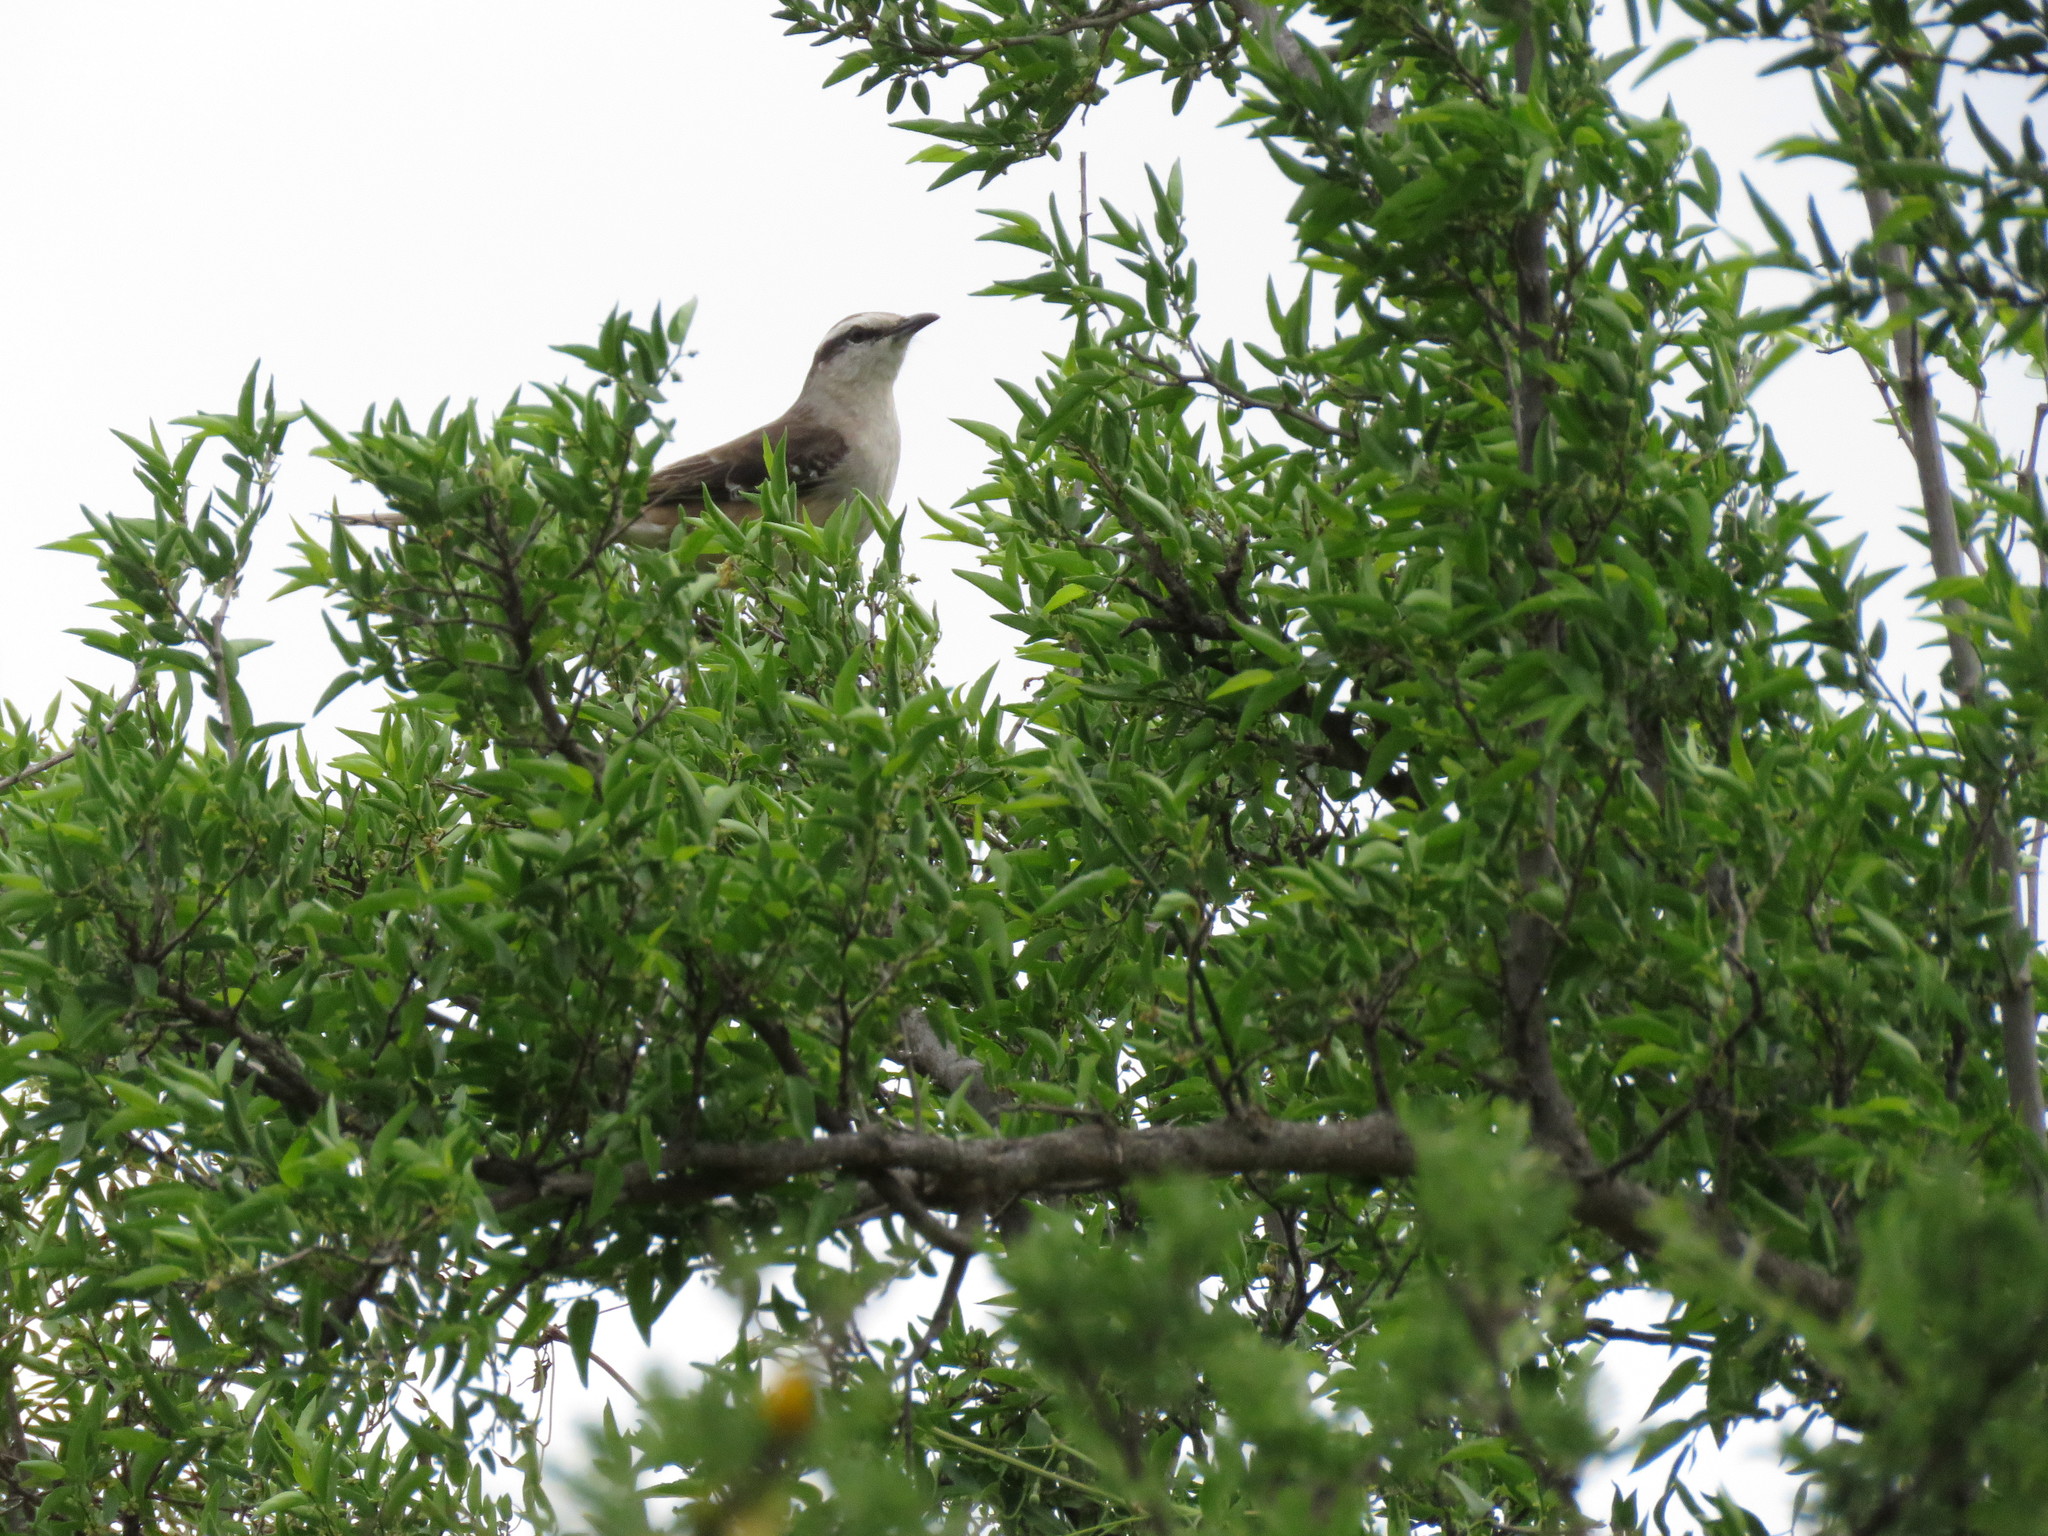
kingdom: Animalia
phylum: Chordata
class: Aves
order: Passeriformes
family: Mimidae
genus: Mimus
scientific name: Mimus saturninus
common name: Chalk-browed mockingbird
